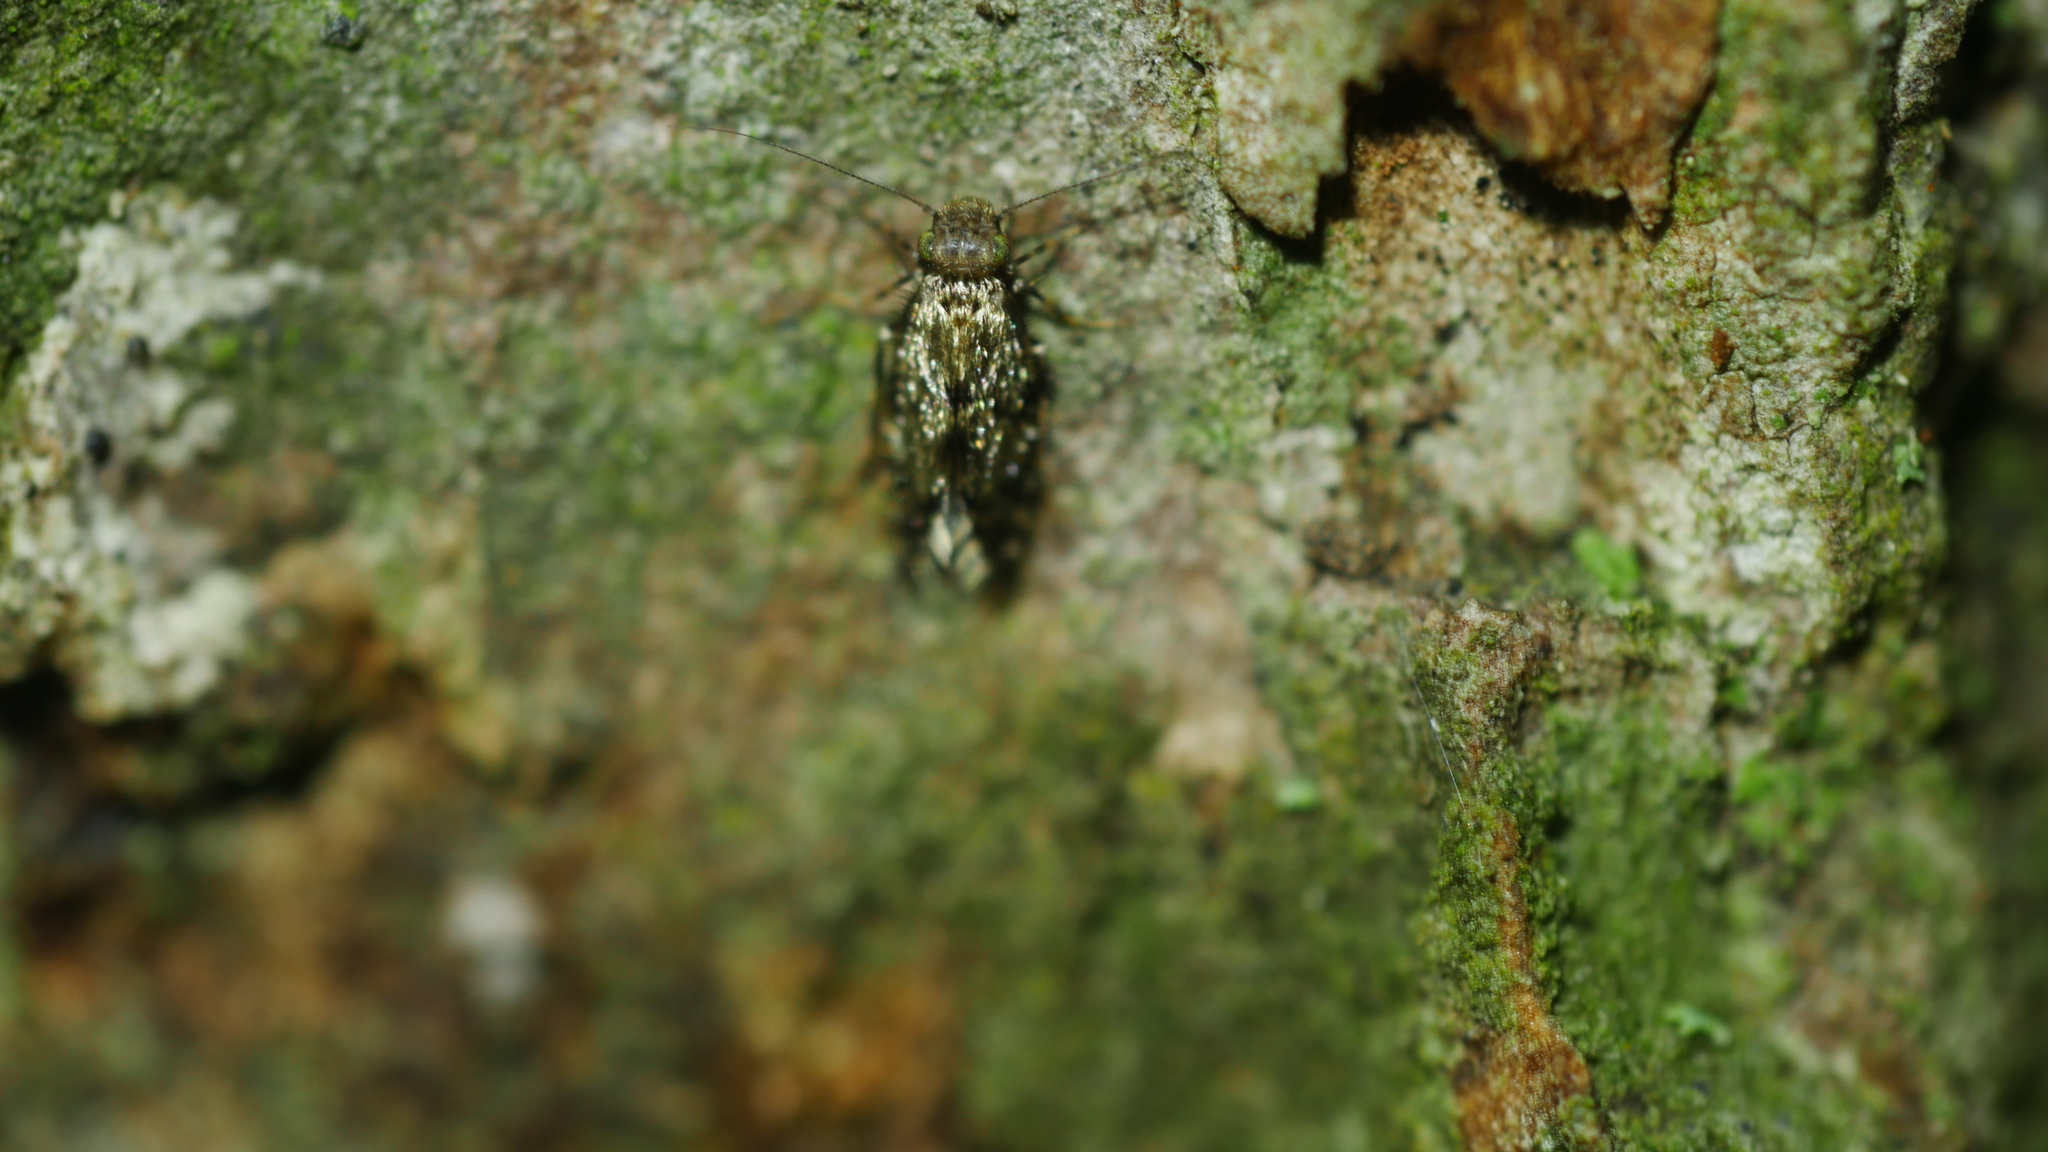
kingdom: Animalia
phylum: Arthropoda
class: Insecta
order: Psocodea
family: Lepidopsocidae
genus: Echmepteryx
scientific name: Echmepteryx hageni
